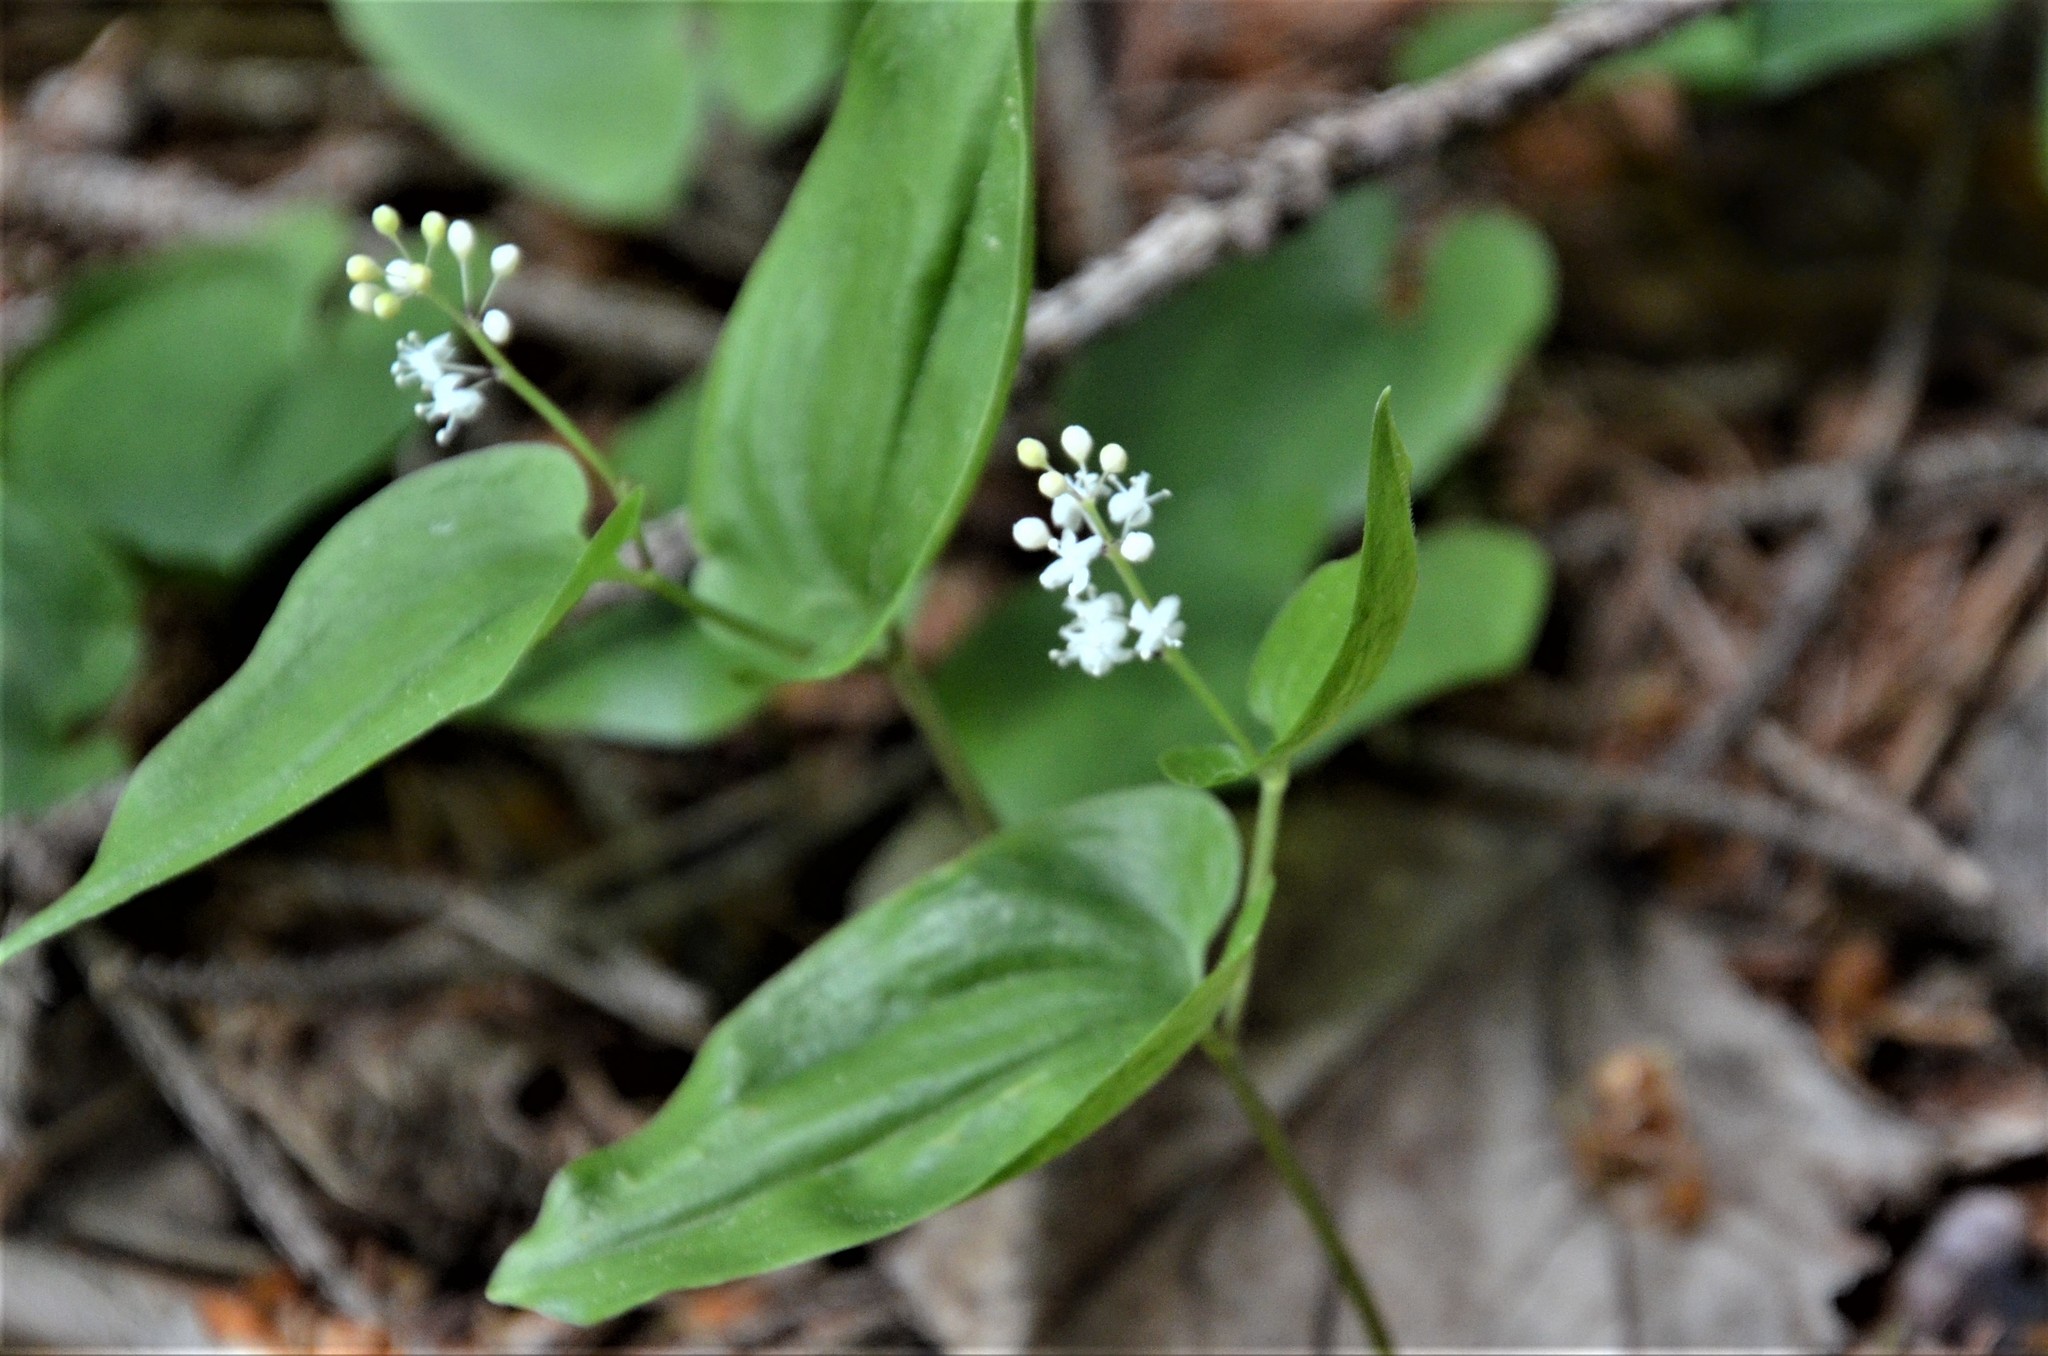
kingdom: Plantae
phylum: Tracheophyta
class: Liliopsida
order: Asparagales
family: Asparagaceae
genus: Maianthemum
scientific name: Maianthemum bifolium
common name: May lily
